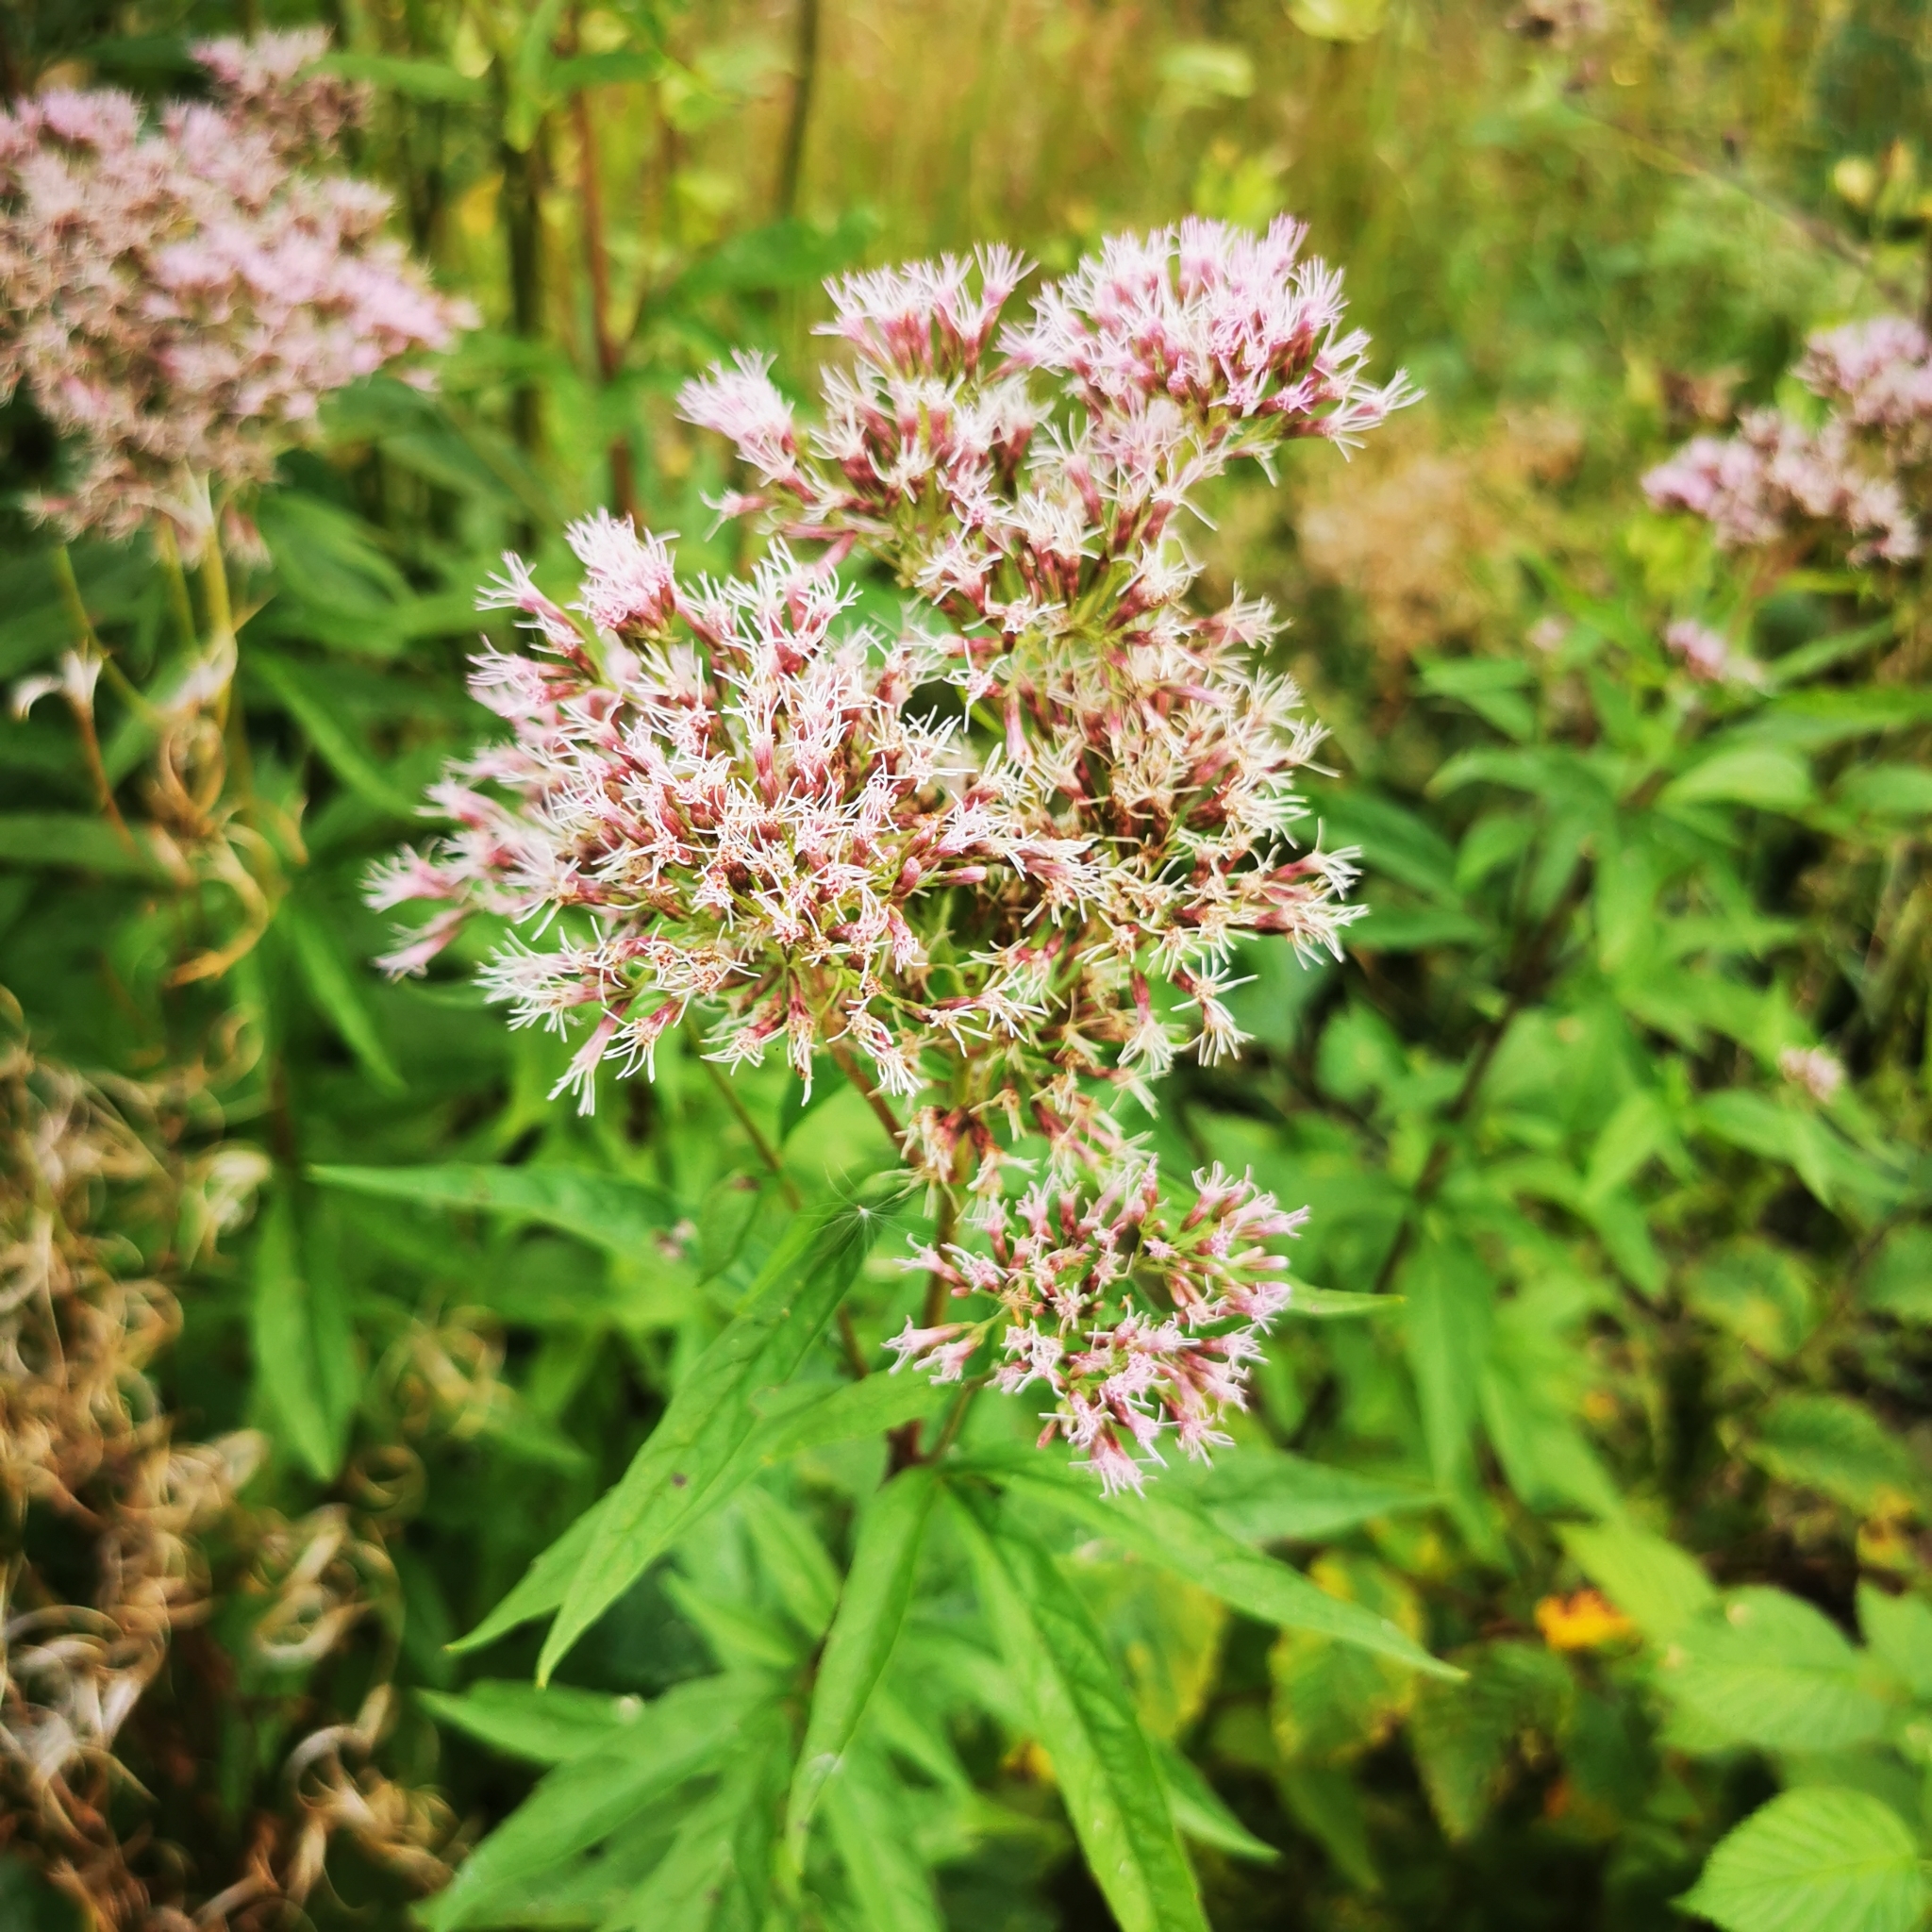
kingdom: Plantae
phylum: Tracheophyta
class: Magnoliopsida
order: Asterales
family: Asteraceae
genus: Eupatorium
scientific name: Eupatorium cannabinum
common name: Hemp-agrimony
